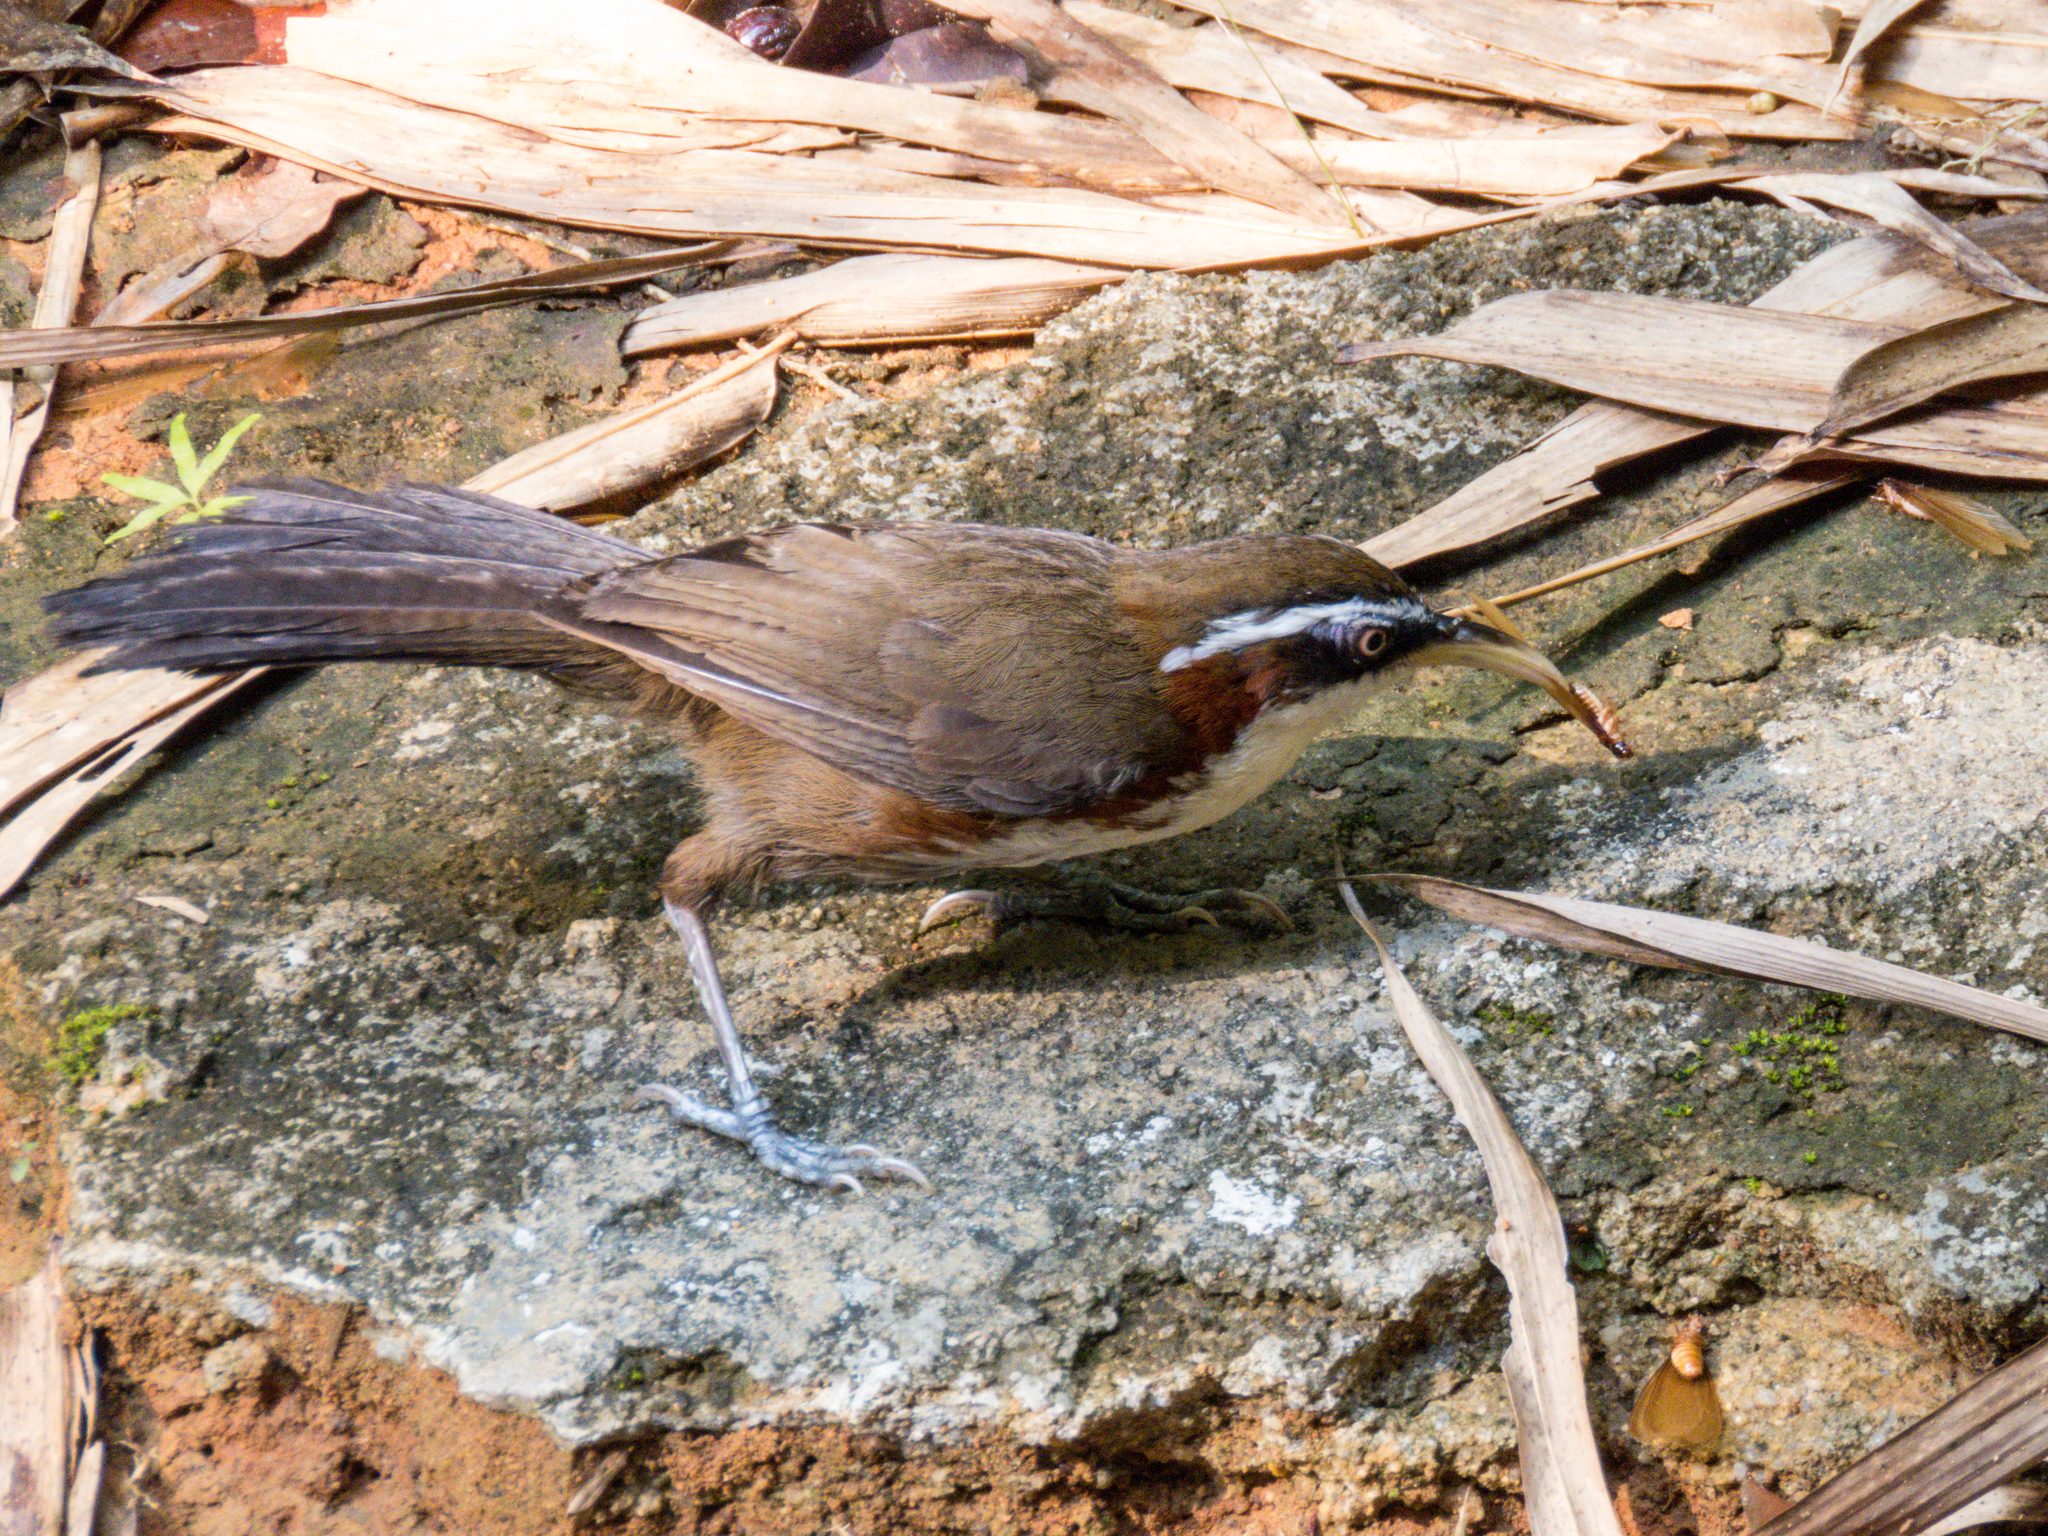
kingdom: Animalia
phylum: Chordata
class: Aves
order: Passeriformes
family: Timaliidae
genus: Pomatorhinus
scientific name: Pomatorhinus schisticeps
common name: White-browed scimitar babbler
